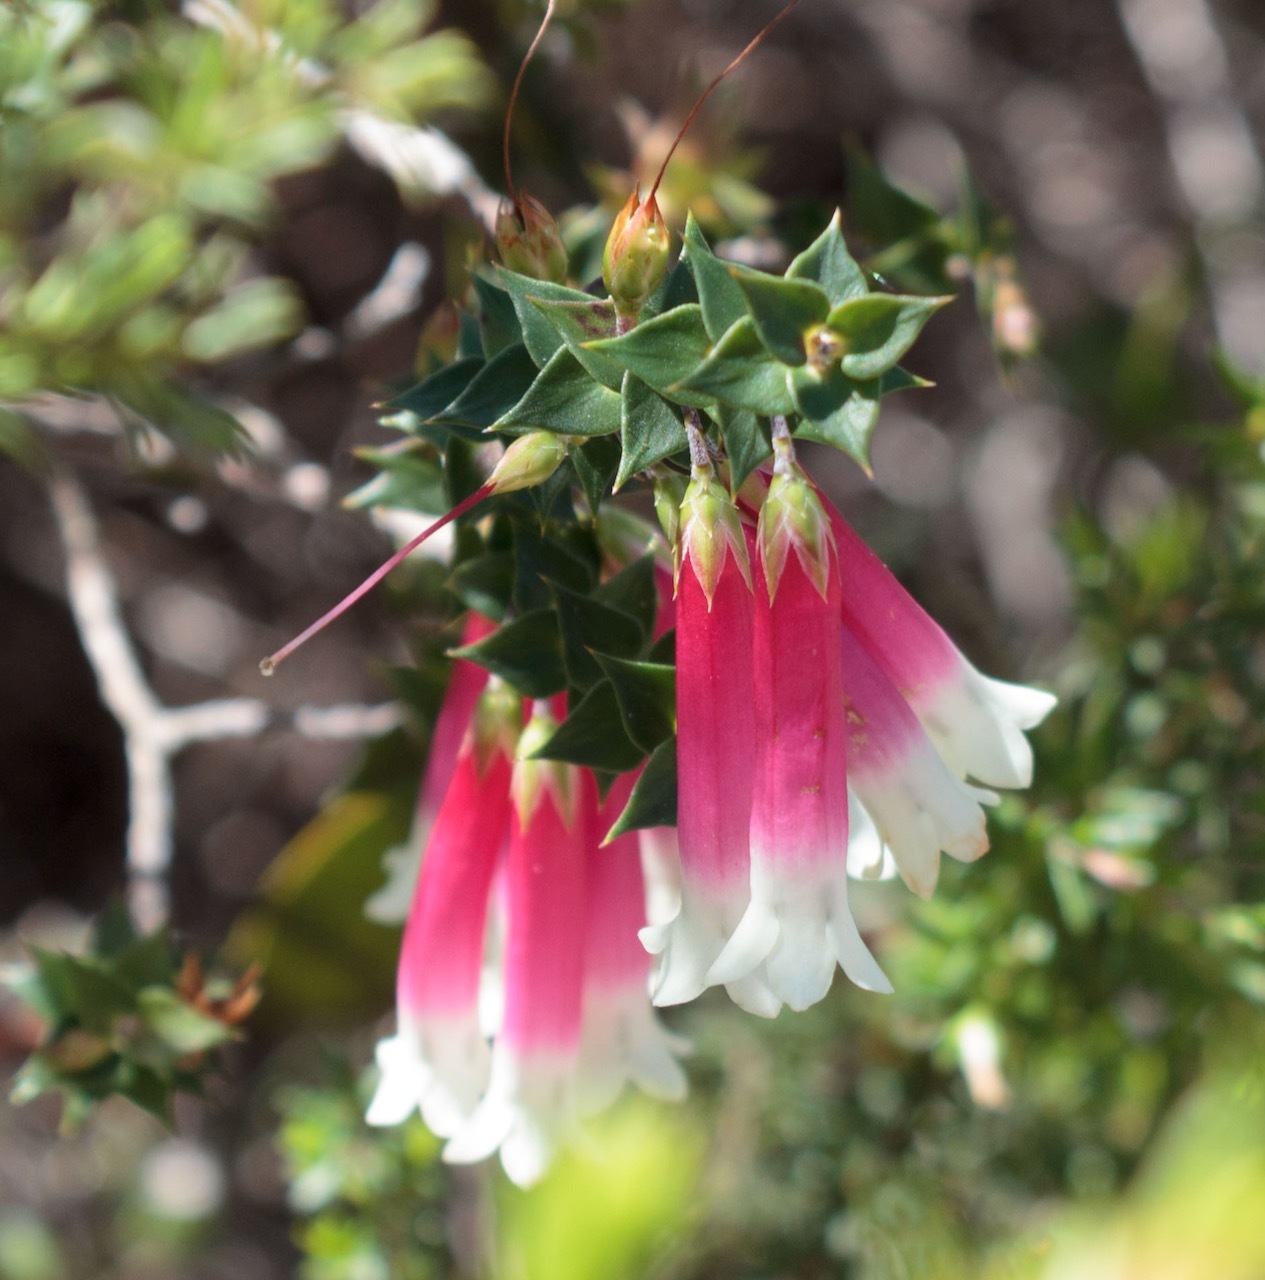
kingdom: Plantae
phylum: Tracheophyta
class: Magnoliopsida
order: Ericales
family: Ericaceae
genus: Epacris
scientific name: Epacris longiflora
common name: Fuchsia-heath
